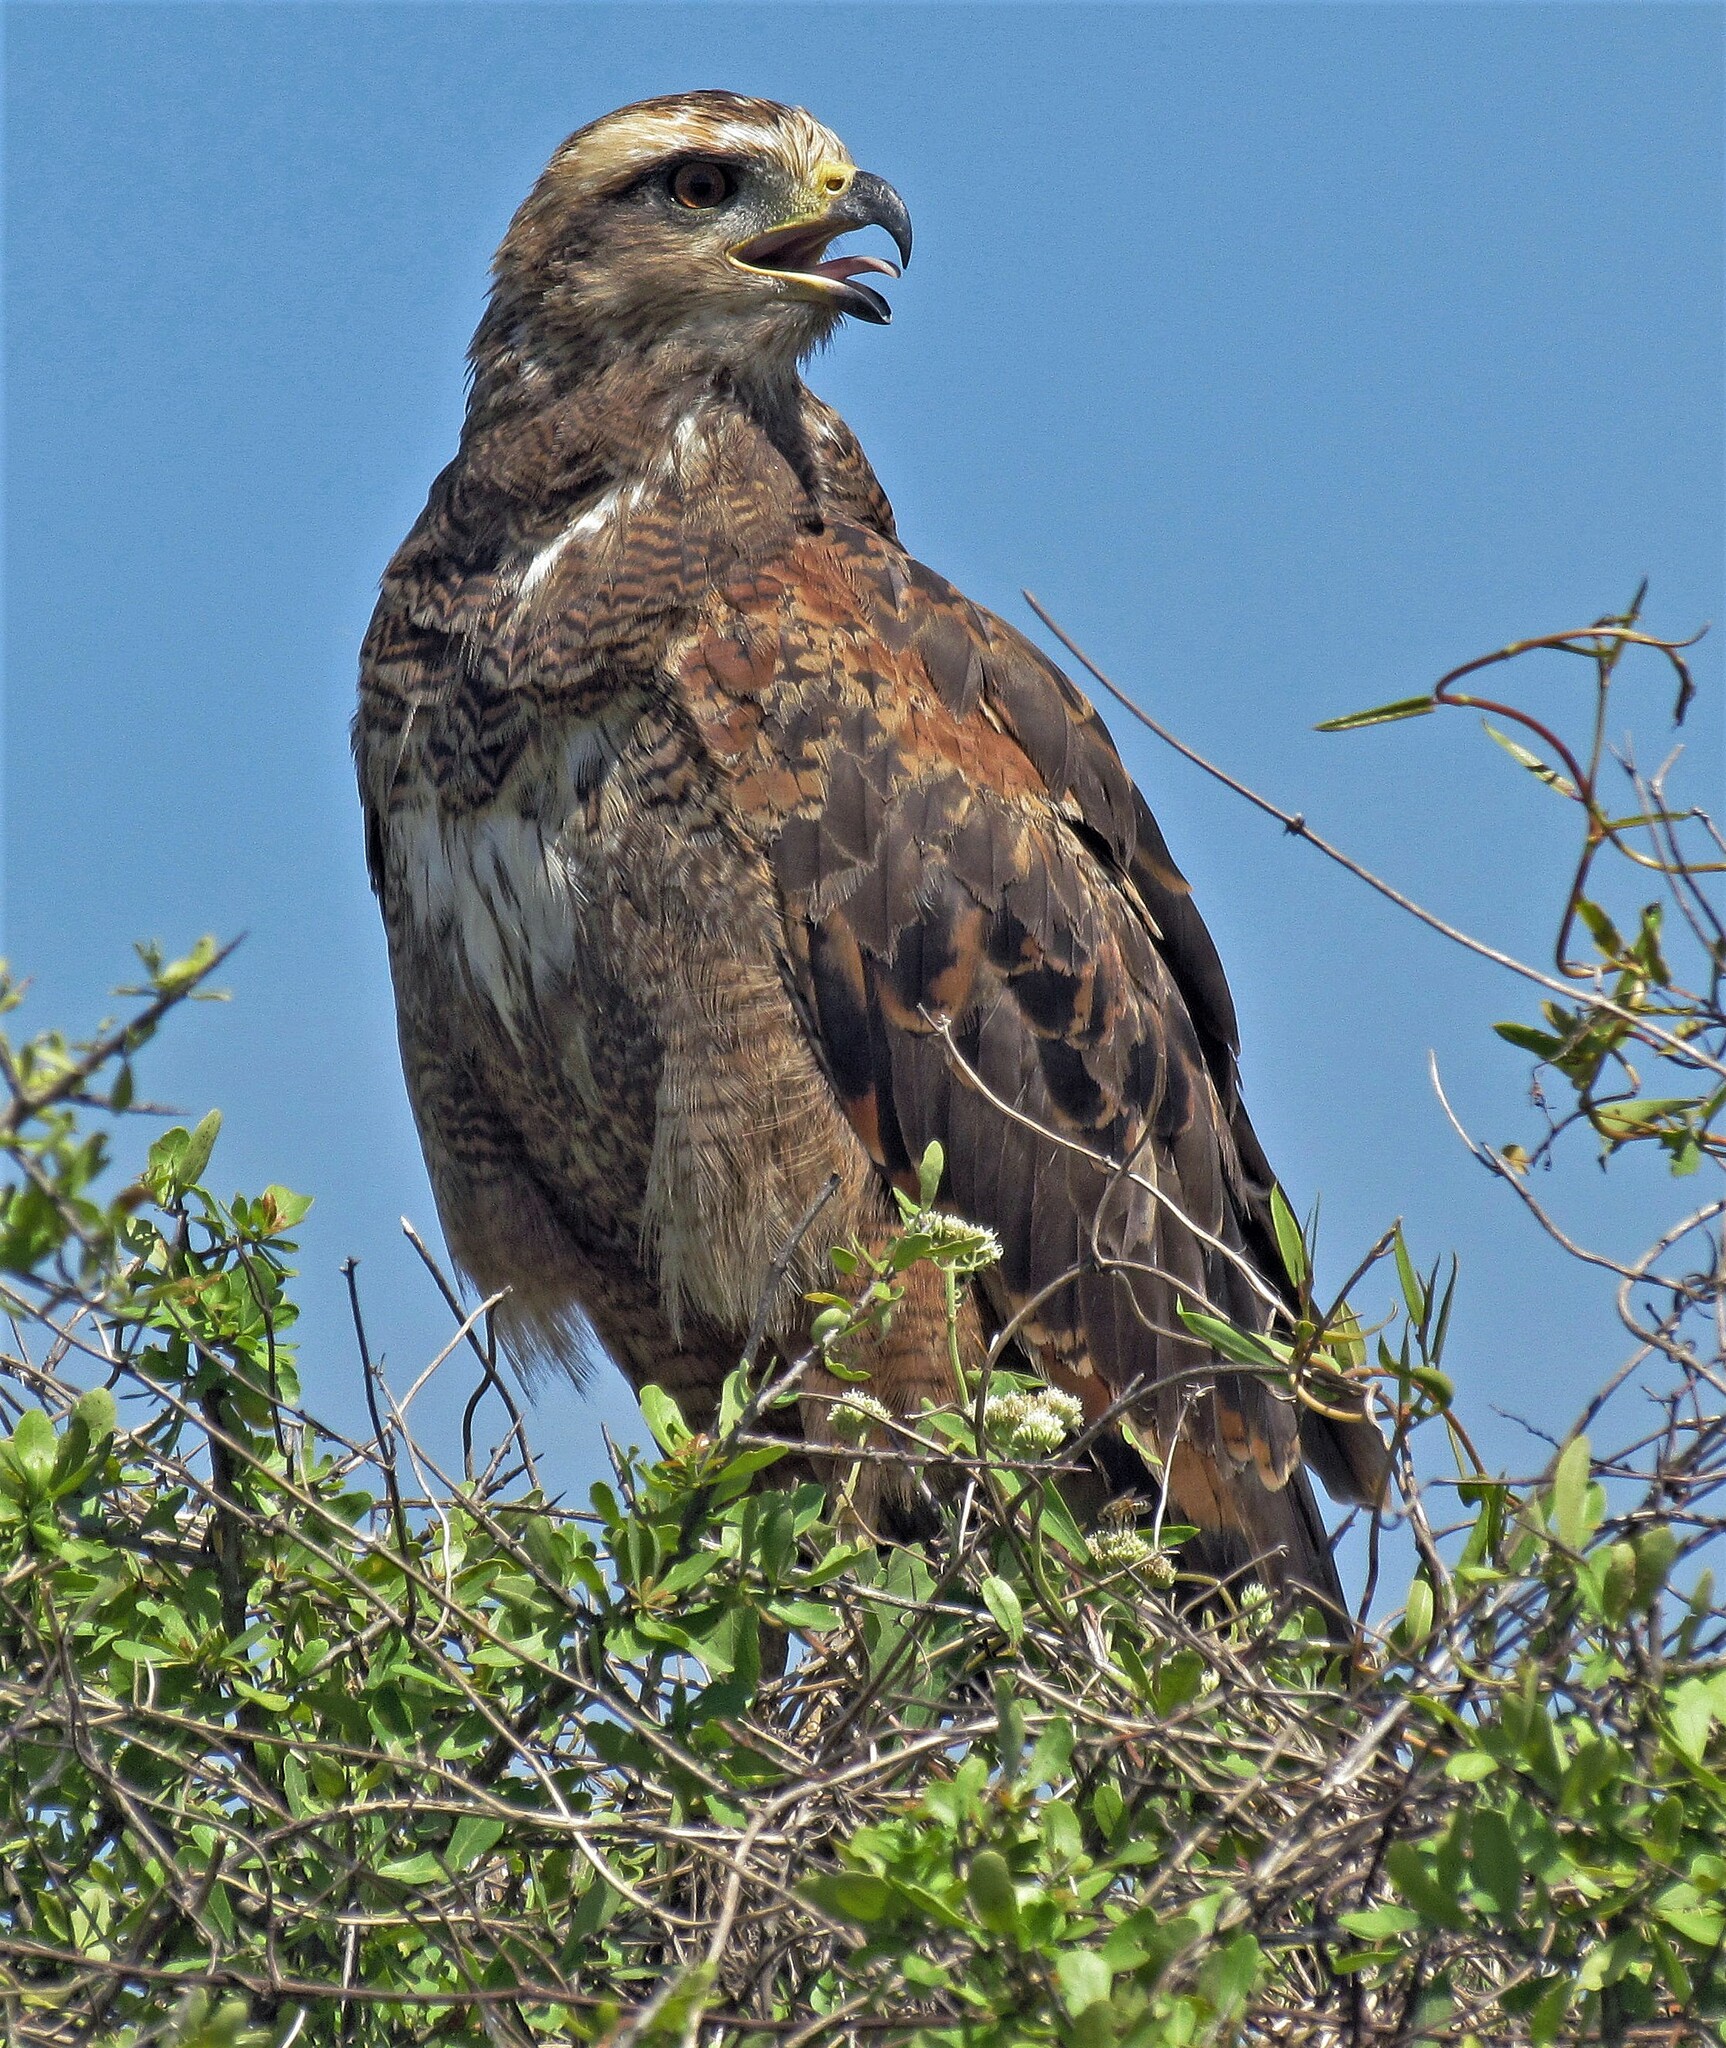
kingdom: Animalia
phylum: Chordata
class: Aves
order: Accipitriformes
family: Accipitridae
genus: Buteogallus
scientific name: Buteogallus meridionalis
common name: Savanna hawk
